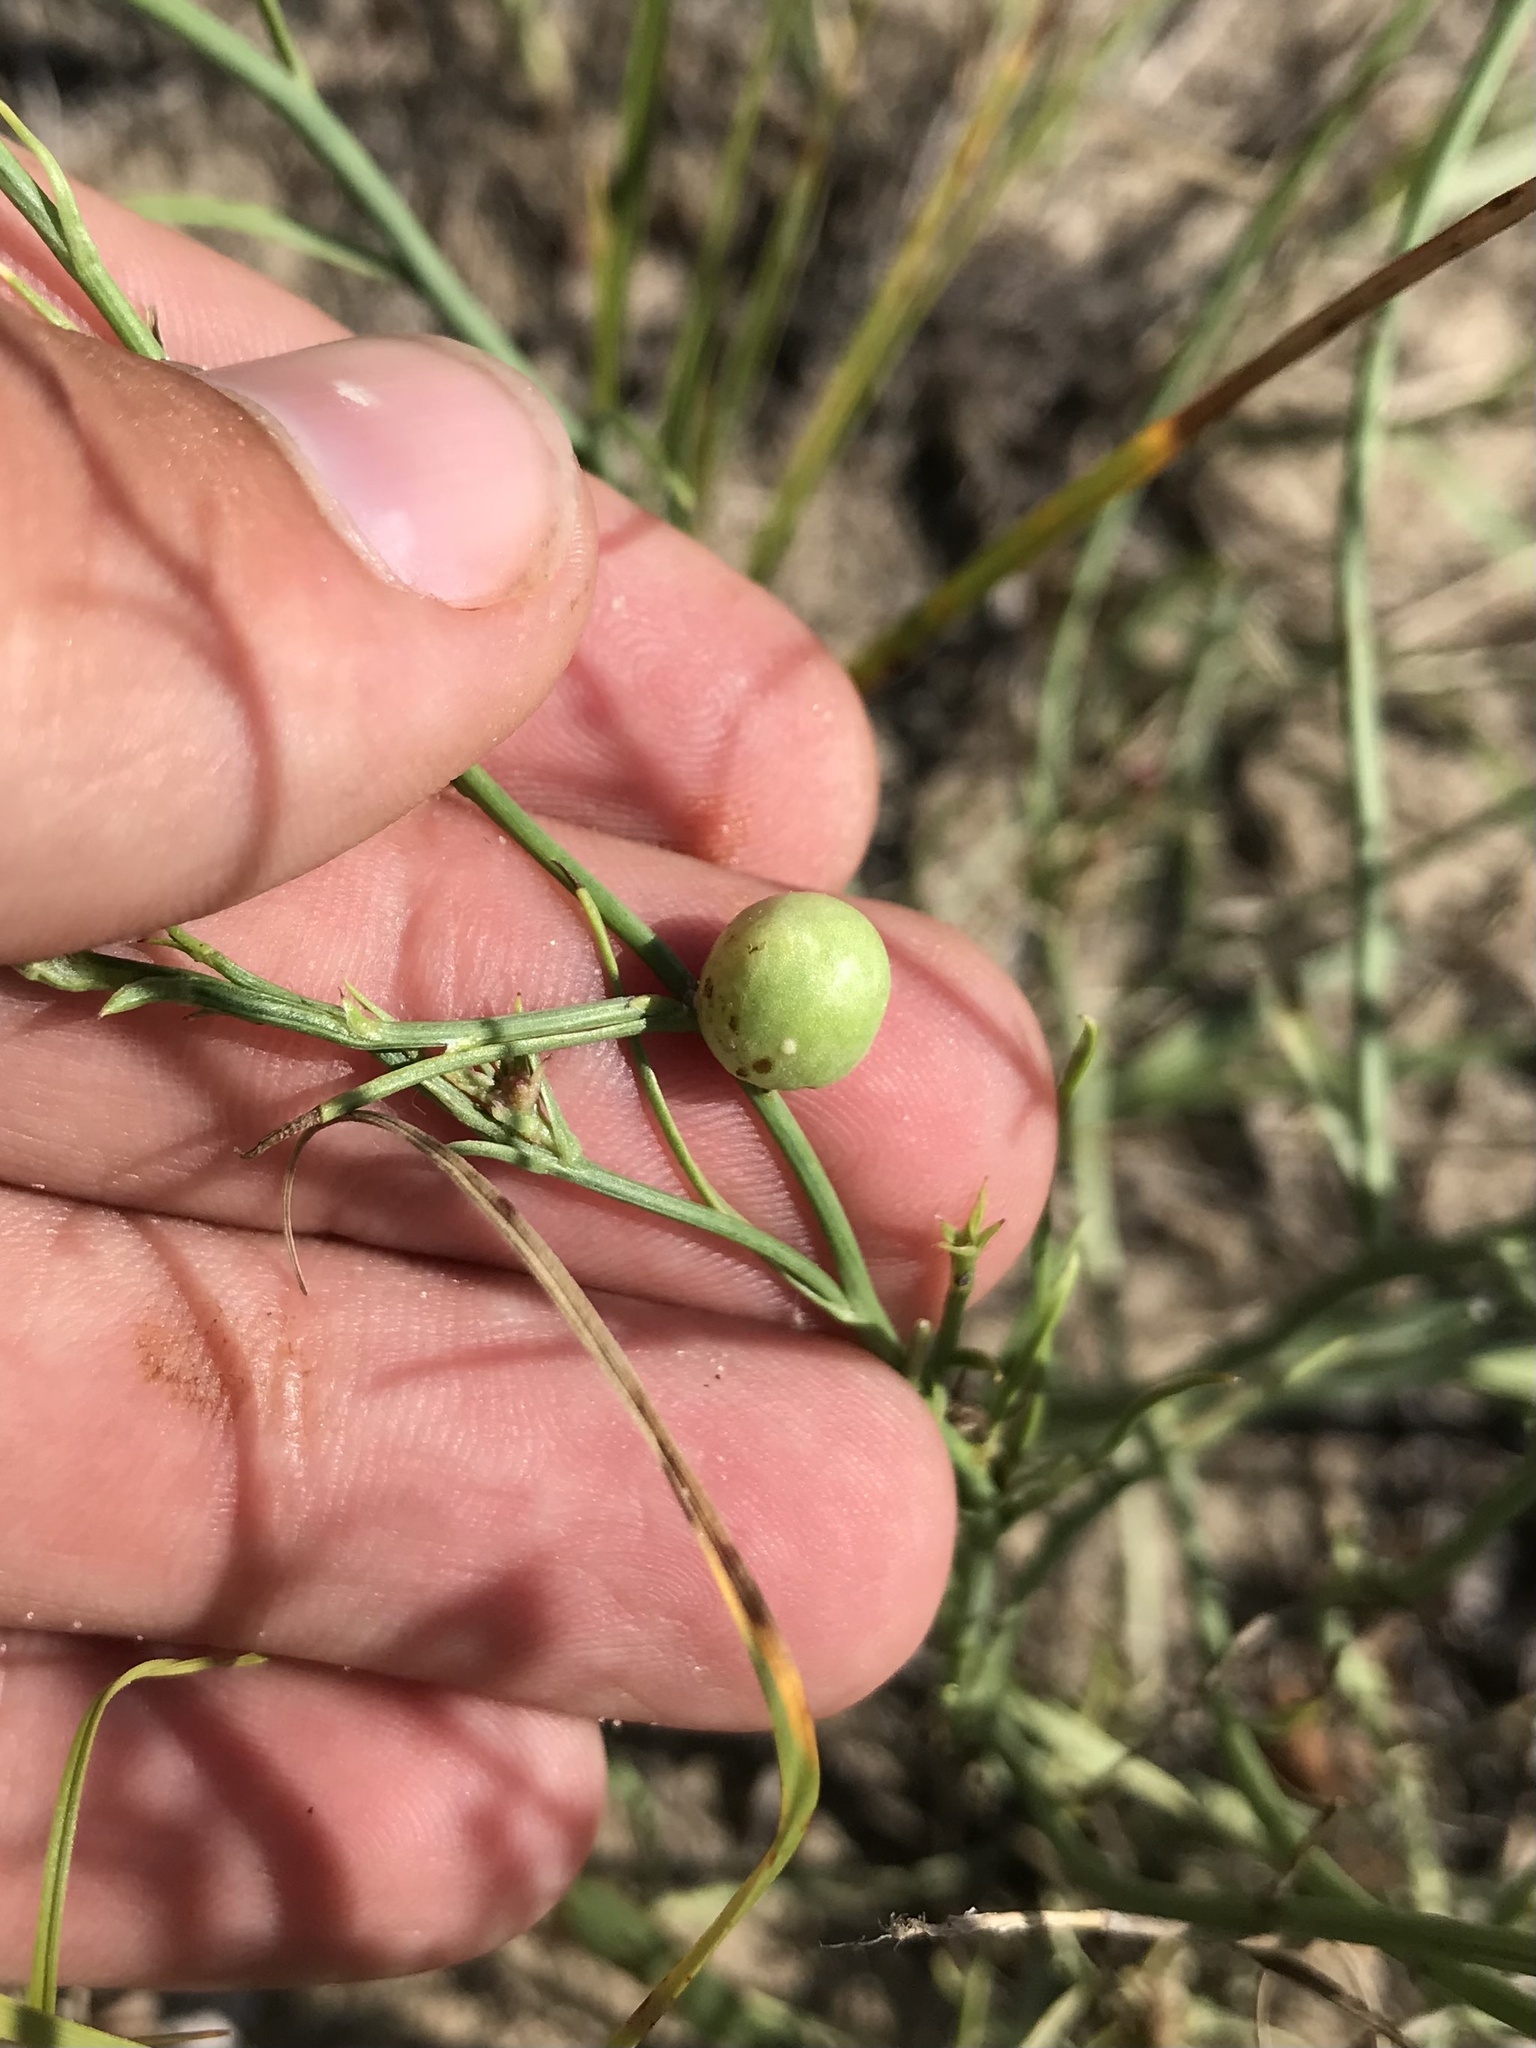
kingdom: Animalia
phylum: Arthropoda
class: Insecta
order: Hymenoptera
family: Cynipidae
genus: Antistrophus
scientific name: Antistrophus
